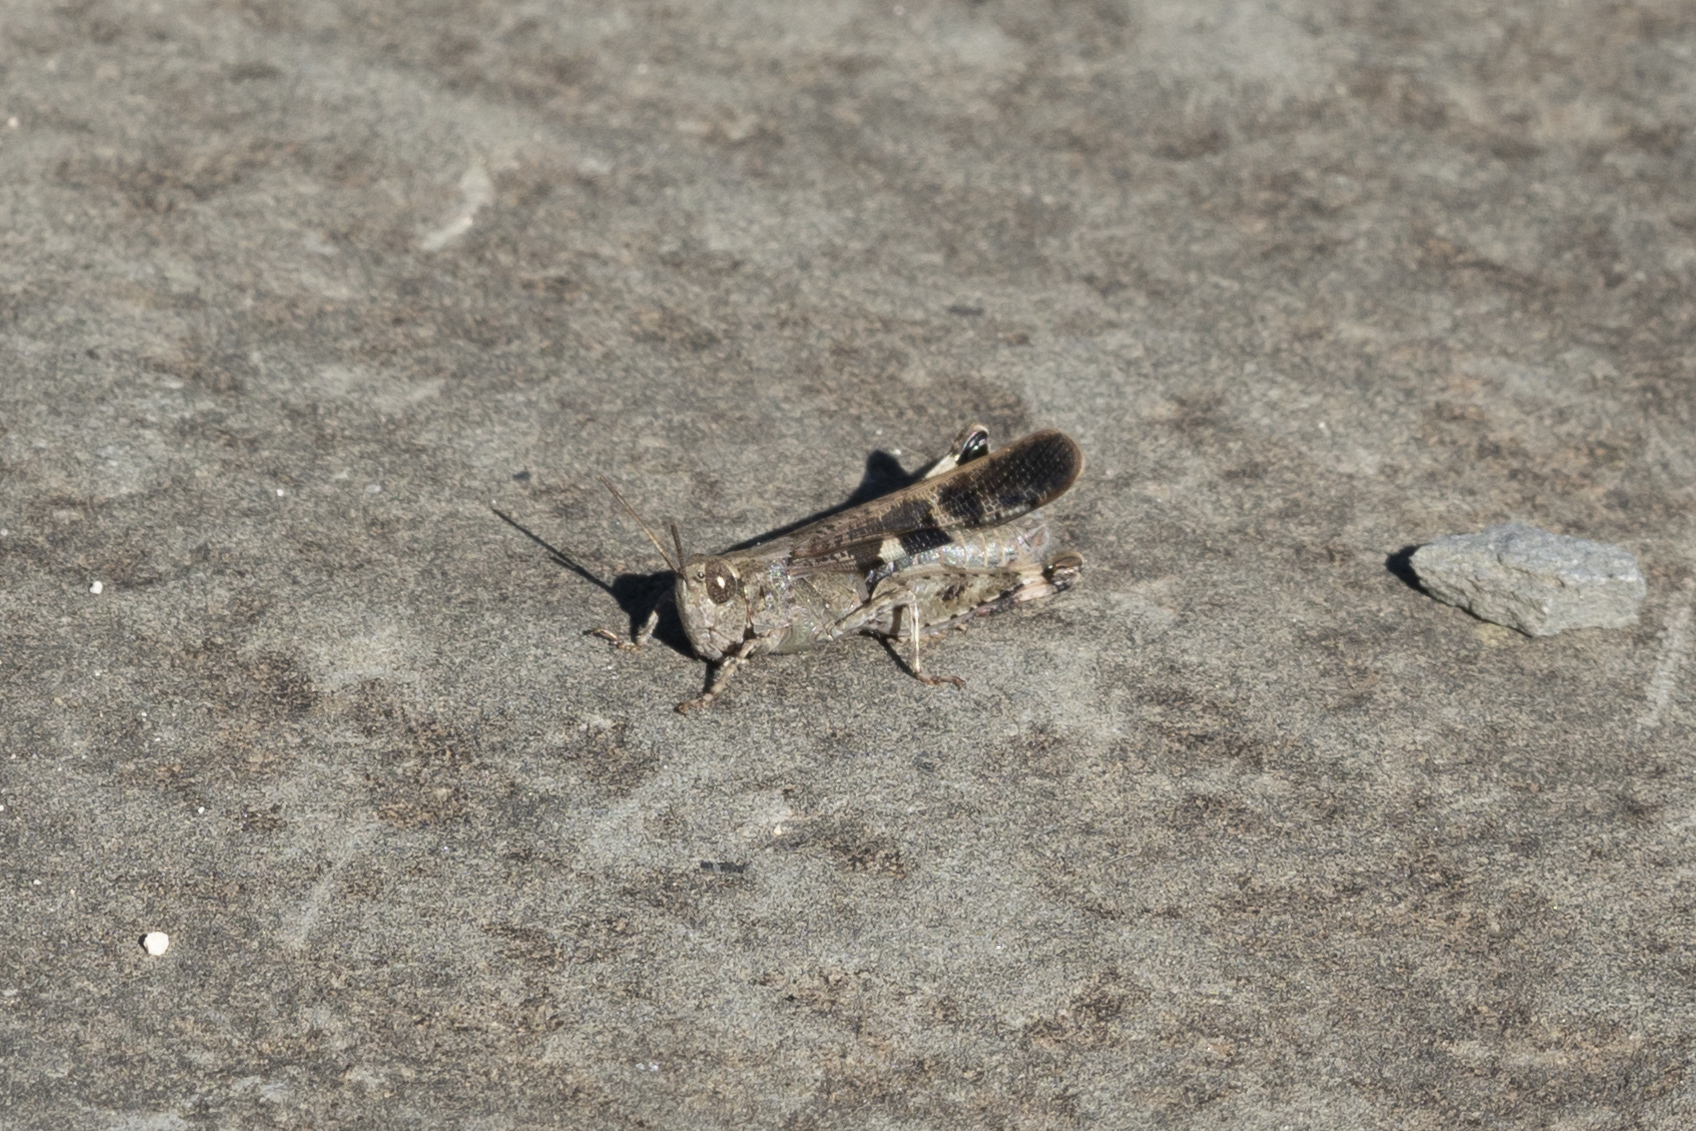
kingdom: Animalia
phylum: Arthropoda
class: Insecta
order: Orthoptera
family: Acrididae
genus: Aiolopus
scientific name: Aiolopus strepens
